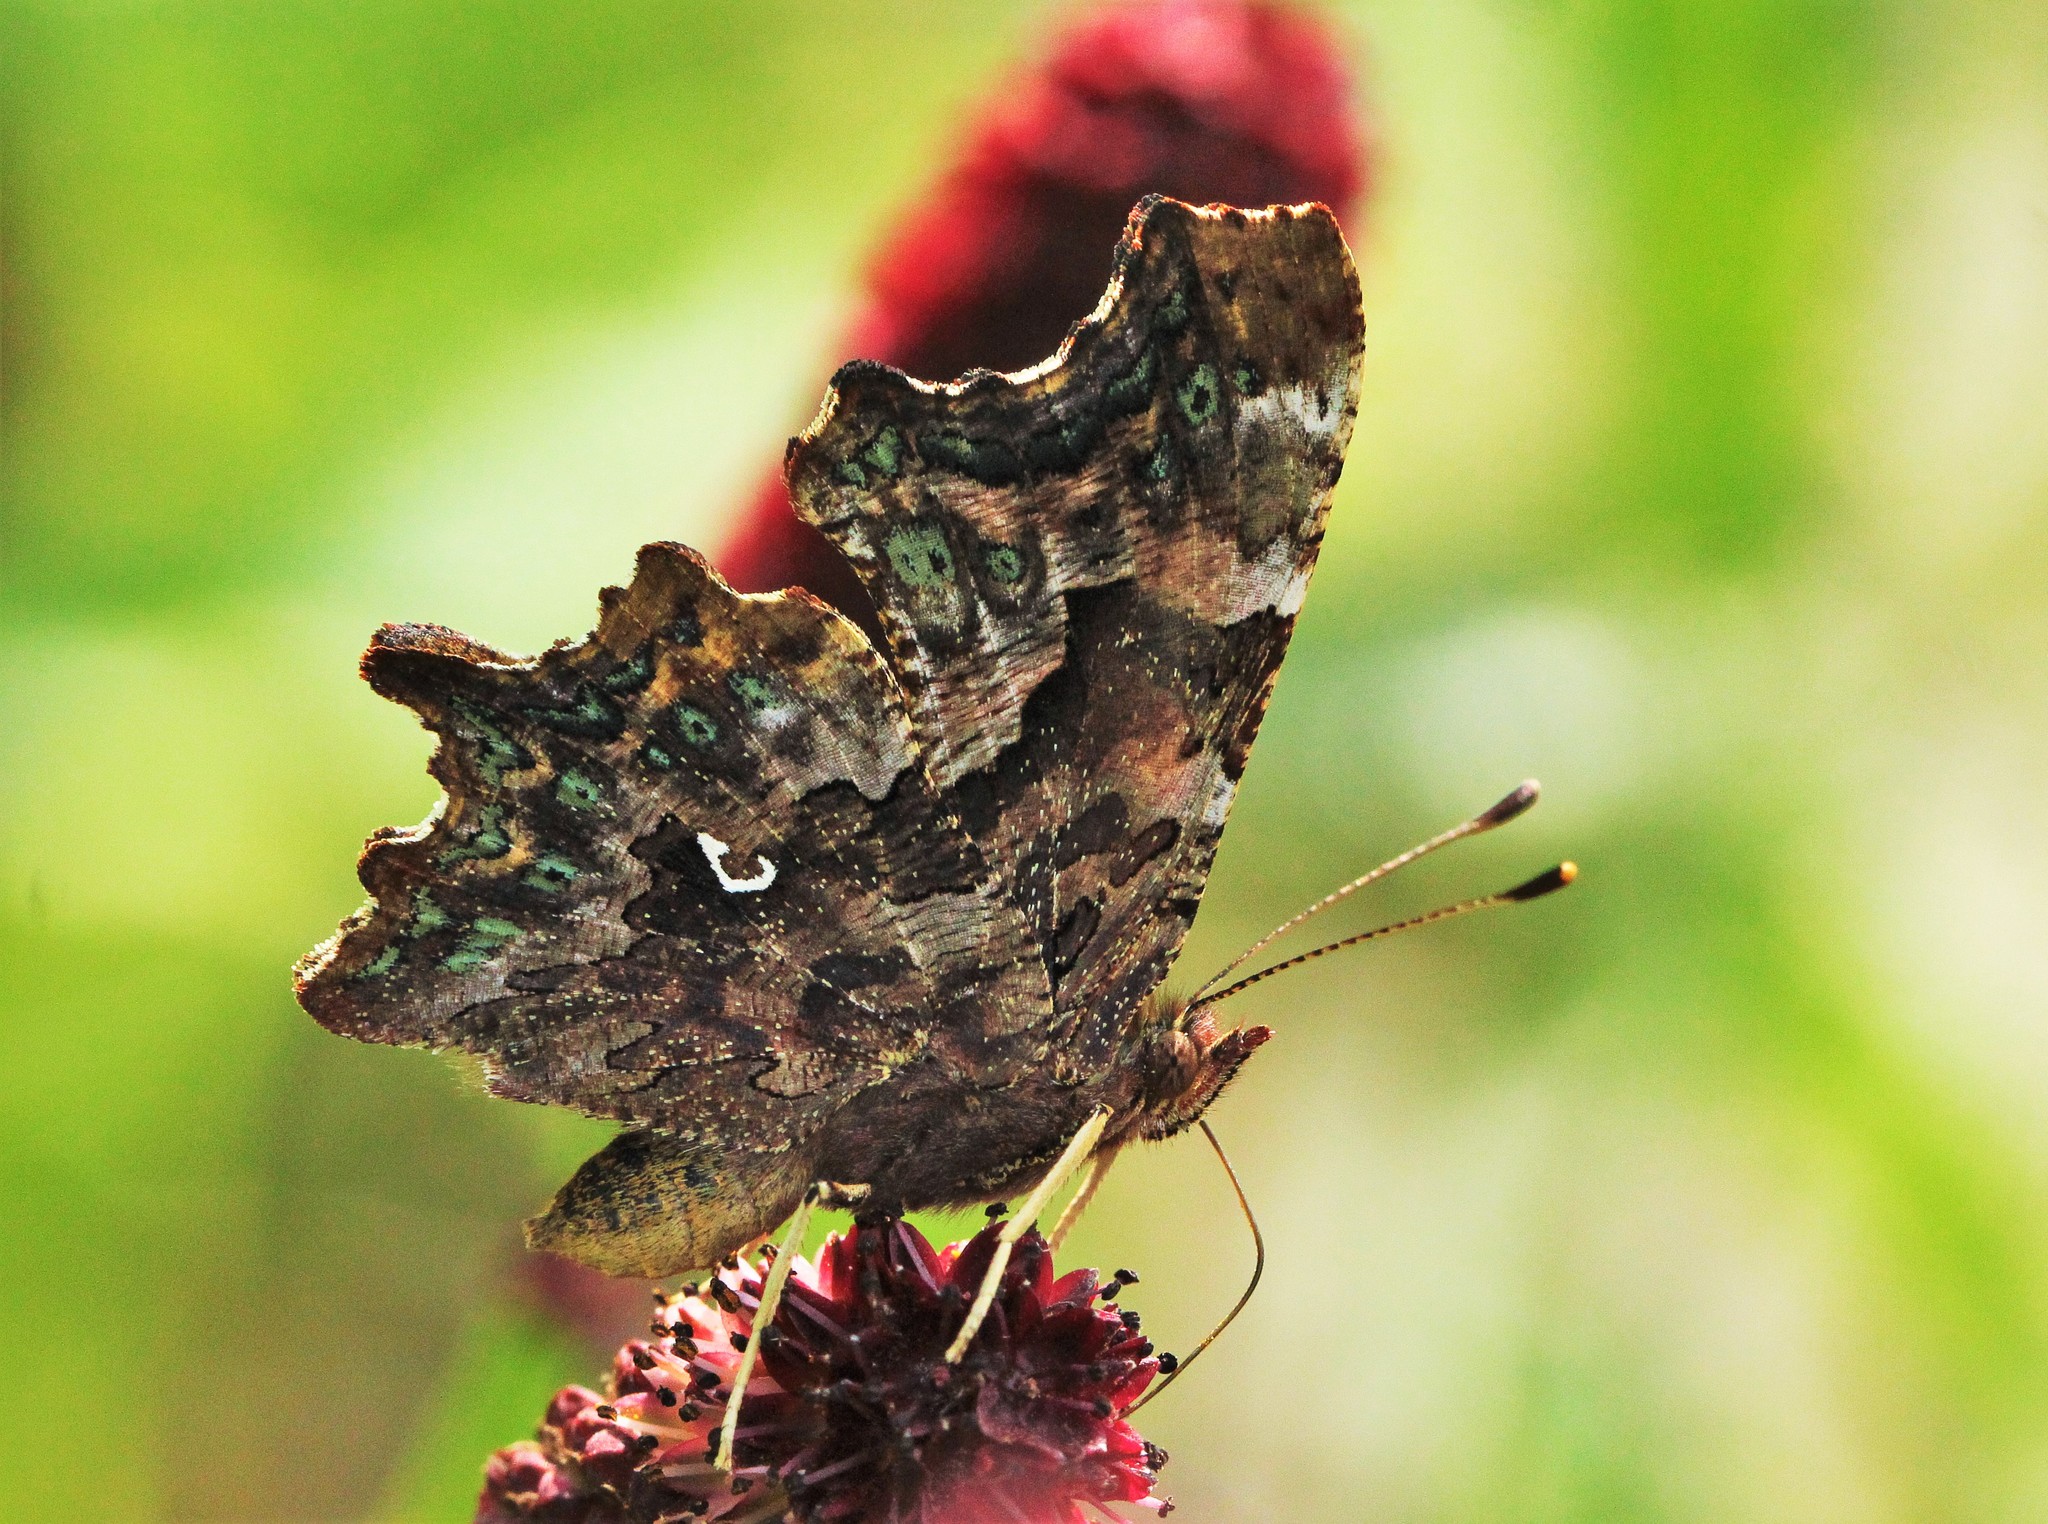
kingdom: Animalia
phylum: Arthropoda
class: Insecta
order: Lepidoptera
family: Nymphalidae
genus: Polygonia
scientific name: Polygonia c-album
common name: Comma
